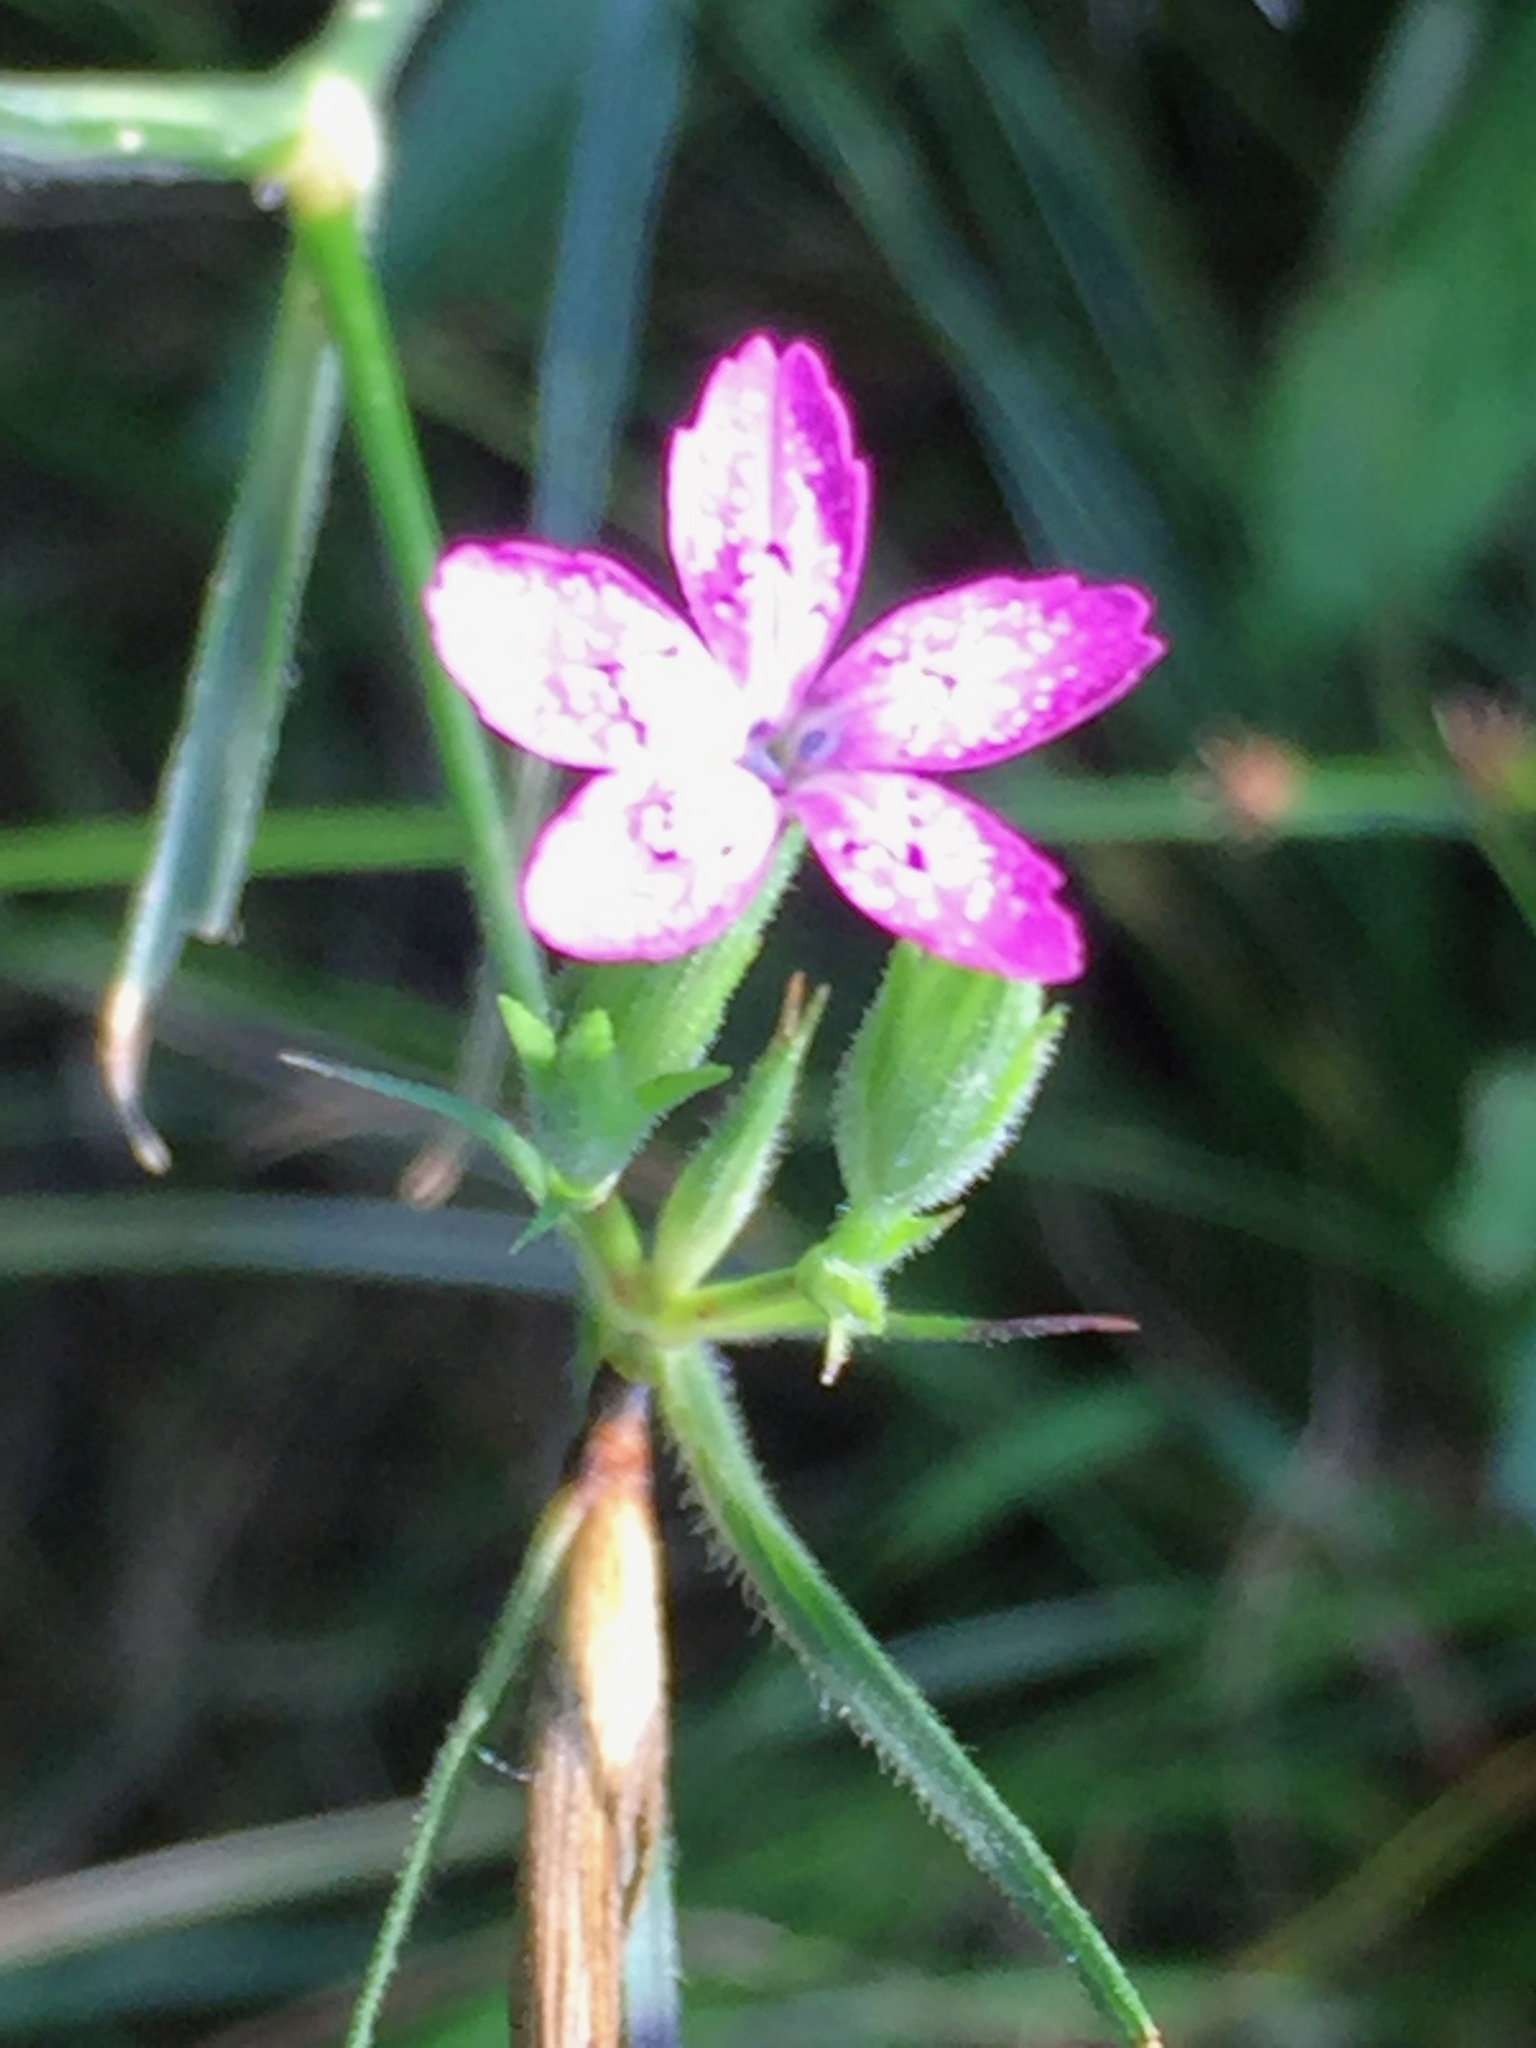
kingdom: Plantae
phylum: Tracheophyta
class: Magnoliopsida
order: Caryophyllales
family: Caryophyllaceae
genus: Dianthus
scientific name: Dianthus armeria
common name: Deptford pink
